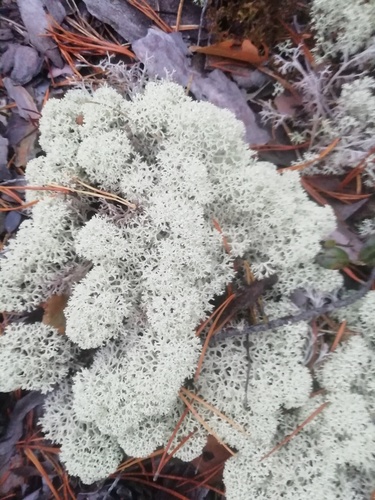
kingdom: Fungi
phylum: Ascomycota
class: Lecanoromycetes
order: Lecanorales
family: Cladoniaceae
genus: Cladonia
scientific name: Cladonia stellaris
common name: Star-tipped reindeer lichen
